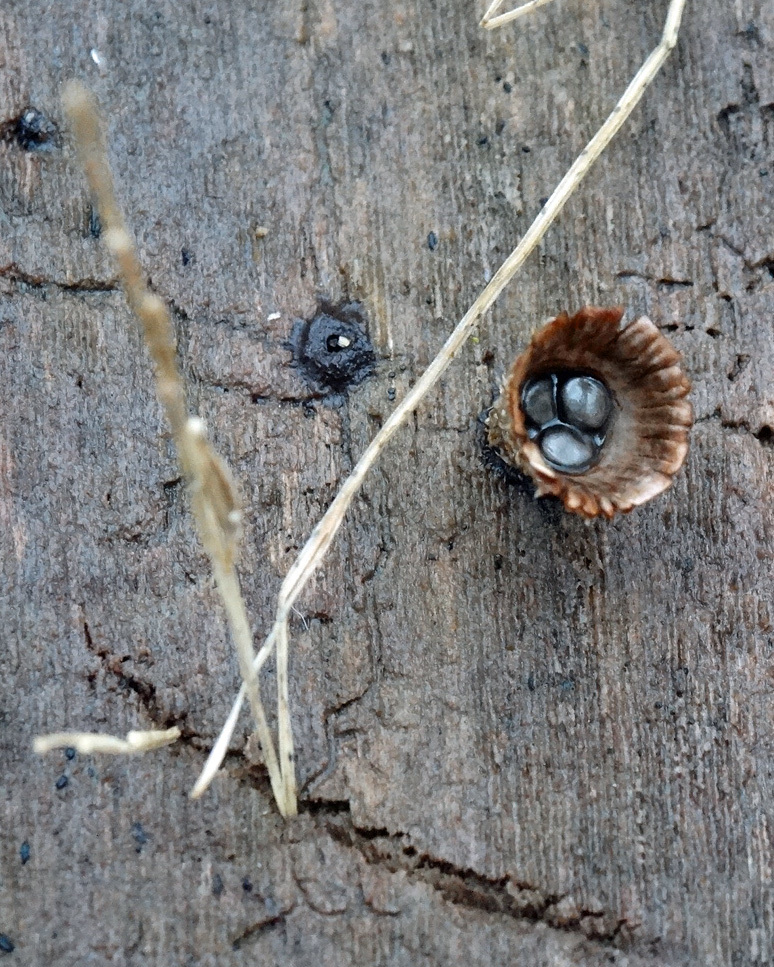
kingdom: Fungi
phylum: Basidiomycota
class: Agaricomycetes
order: Agaricales
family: Agaricaceae
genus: Cyathus
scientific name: Cyathus striatus
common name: Fluted bird's nest
